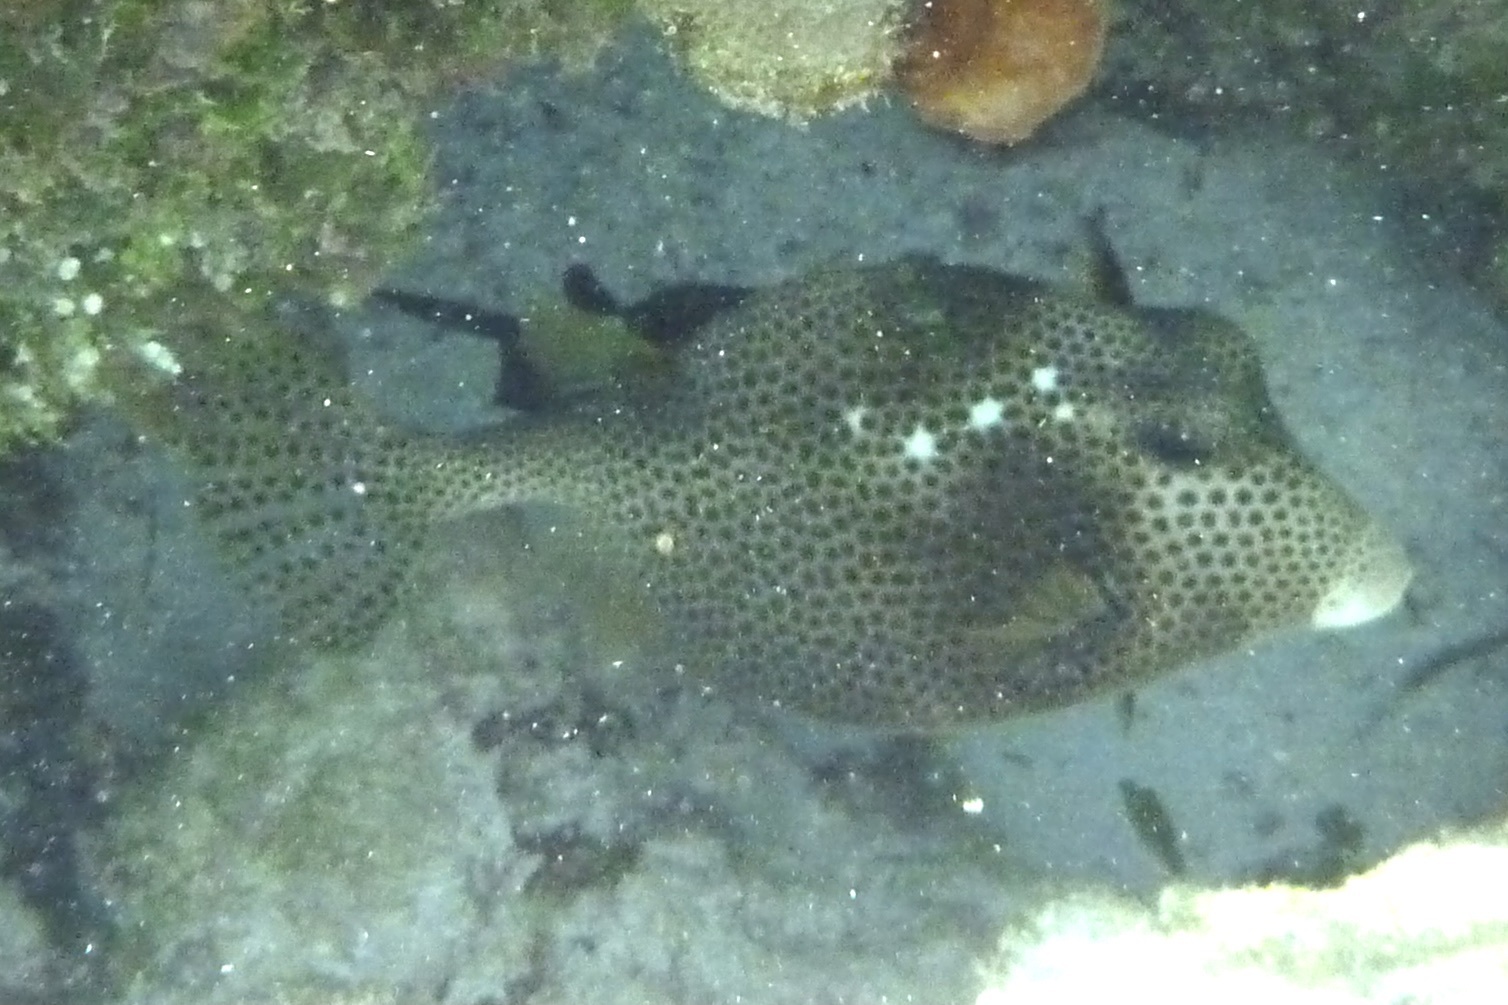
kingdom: Animalia
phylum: Chordata
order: Tetraodontiformes
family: Ostraciidae
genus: Lactophrys
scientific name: Lactophrys bicaudalis
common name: Spotted trunkfish
